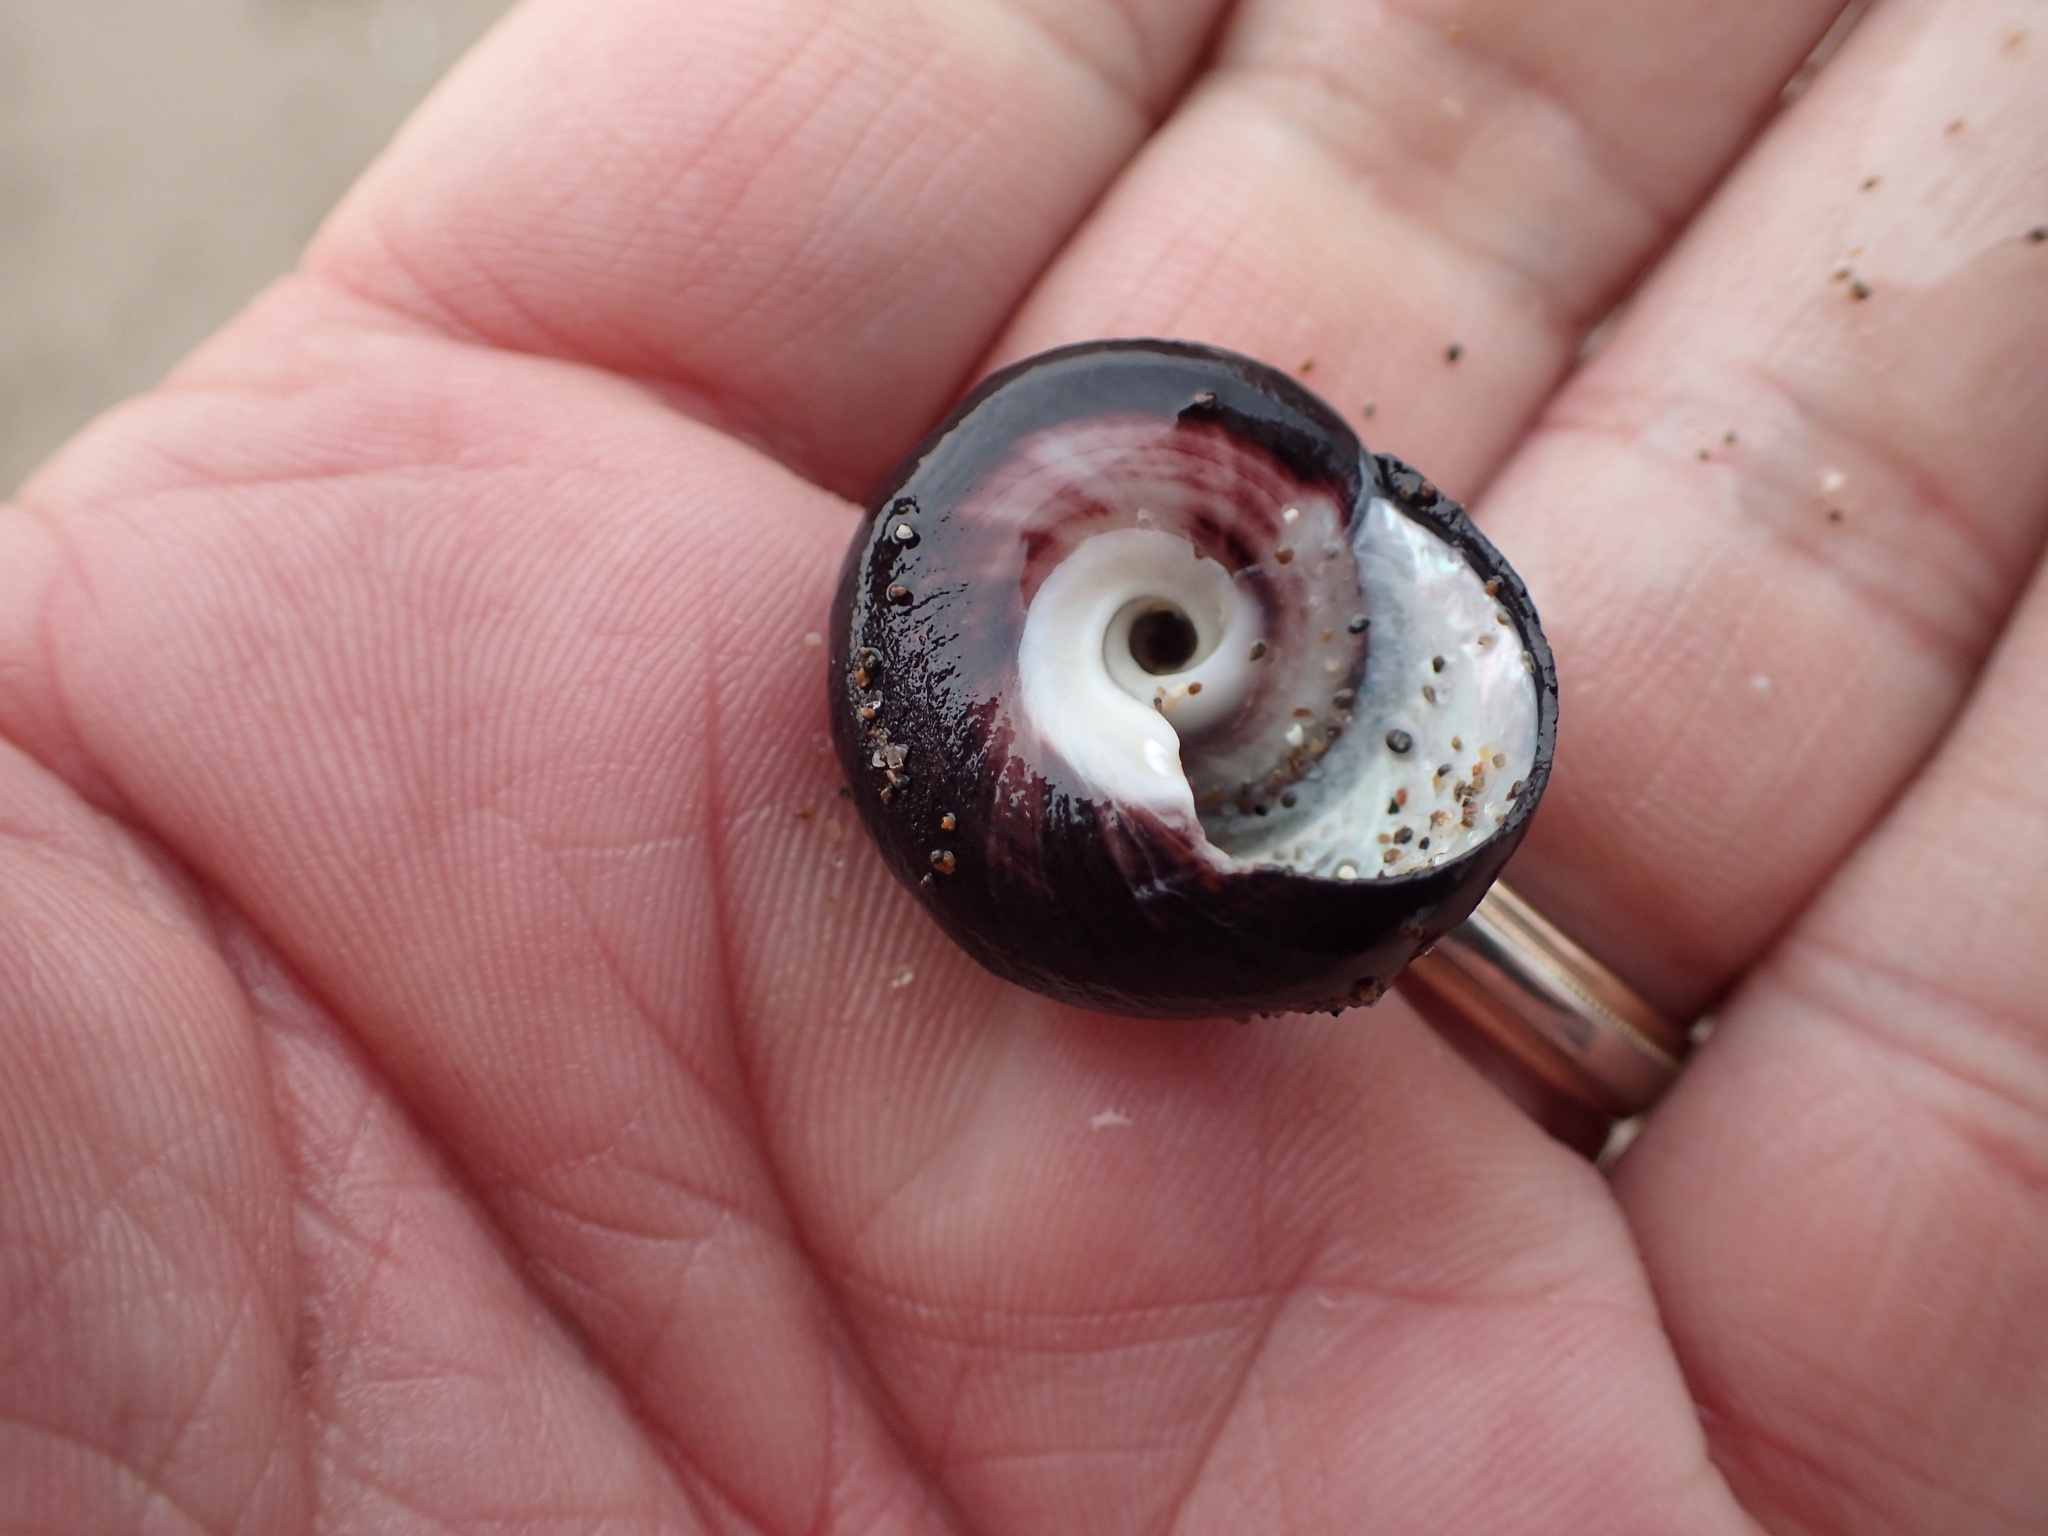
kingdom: Animalia
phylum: Mollusca
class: Gastropoda
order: Trochida
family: Tegulidae
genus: Tegula
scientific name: Tegula euryomphala
